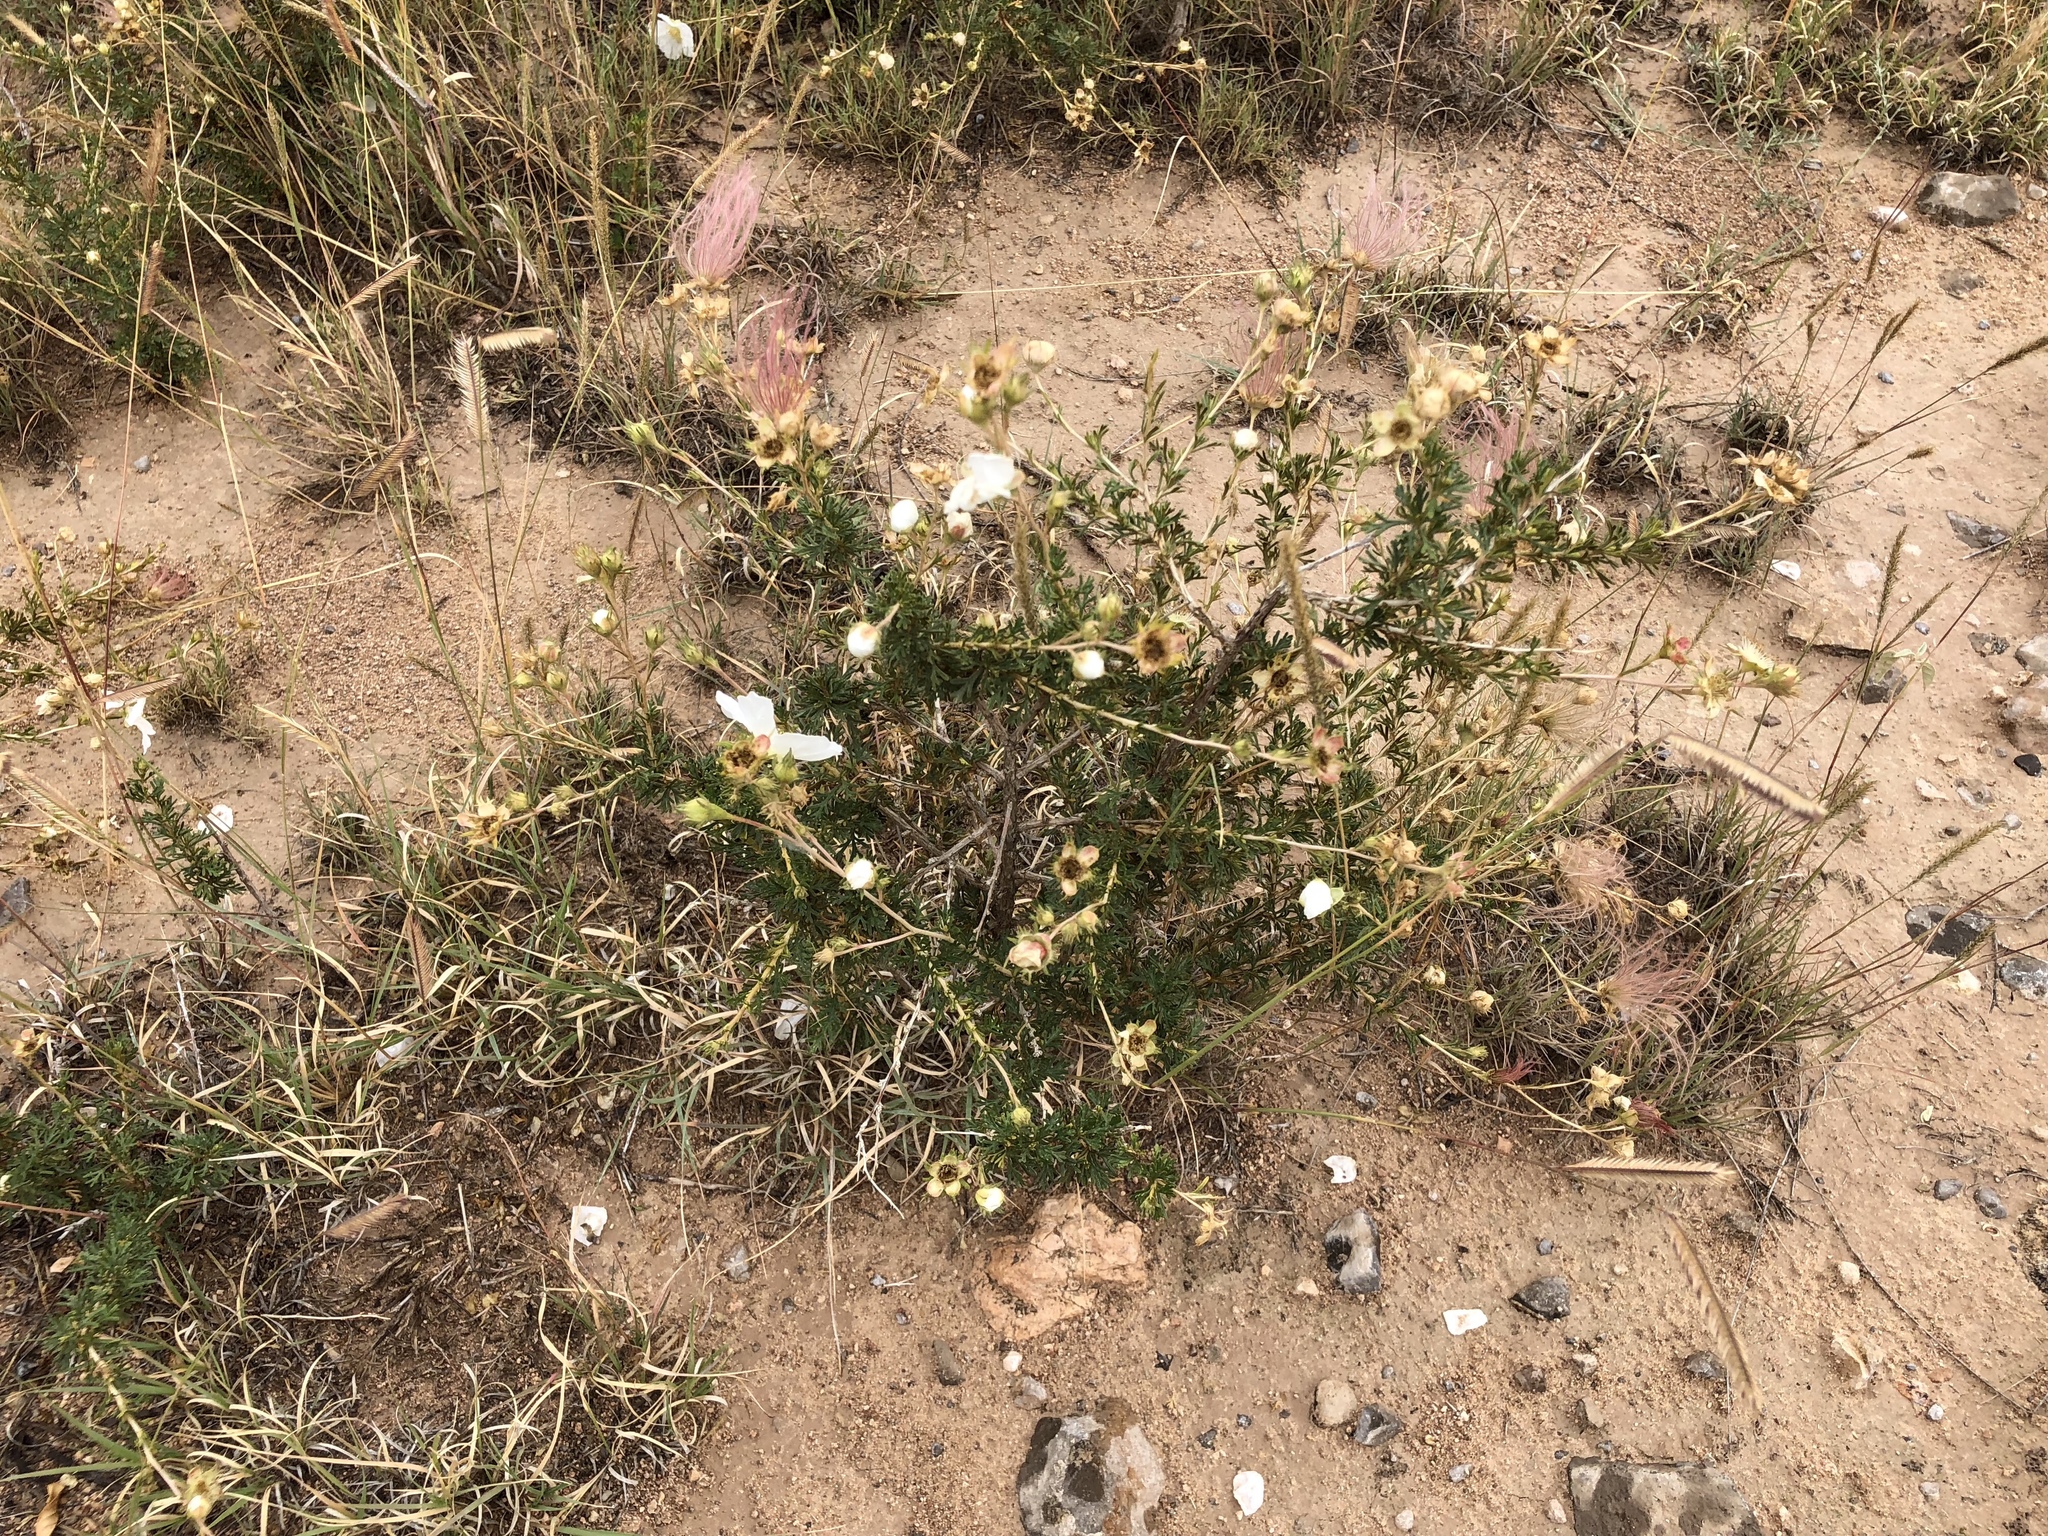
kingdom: Plantae
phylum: Tracheophyta
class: Magnoliopsida
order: Rosales
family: Rosaceae
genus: Fallugia
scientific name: Fallugia paradoxa
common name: Apache-plume
